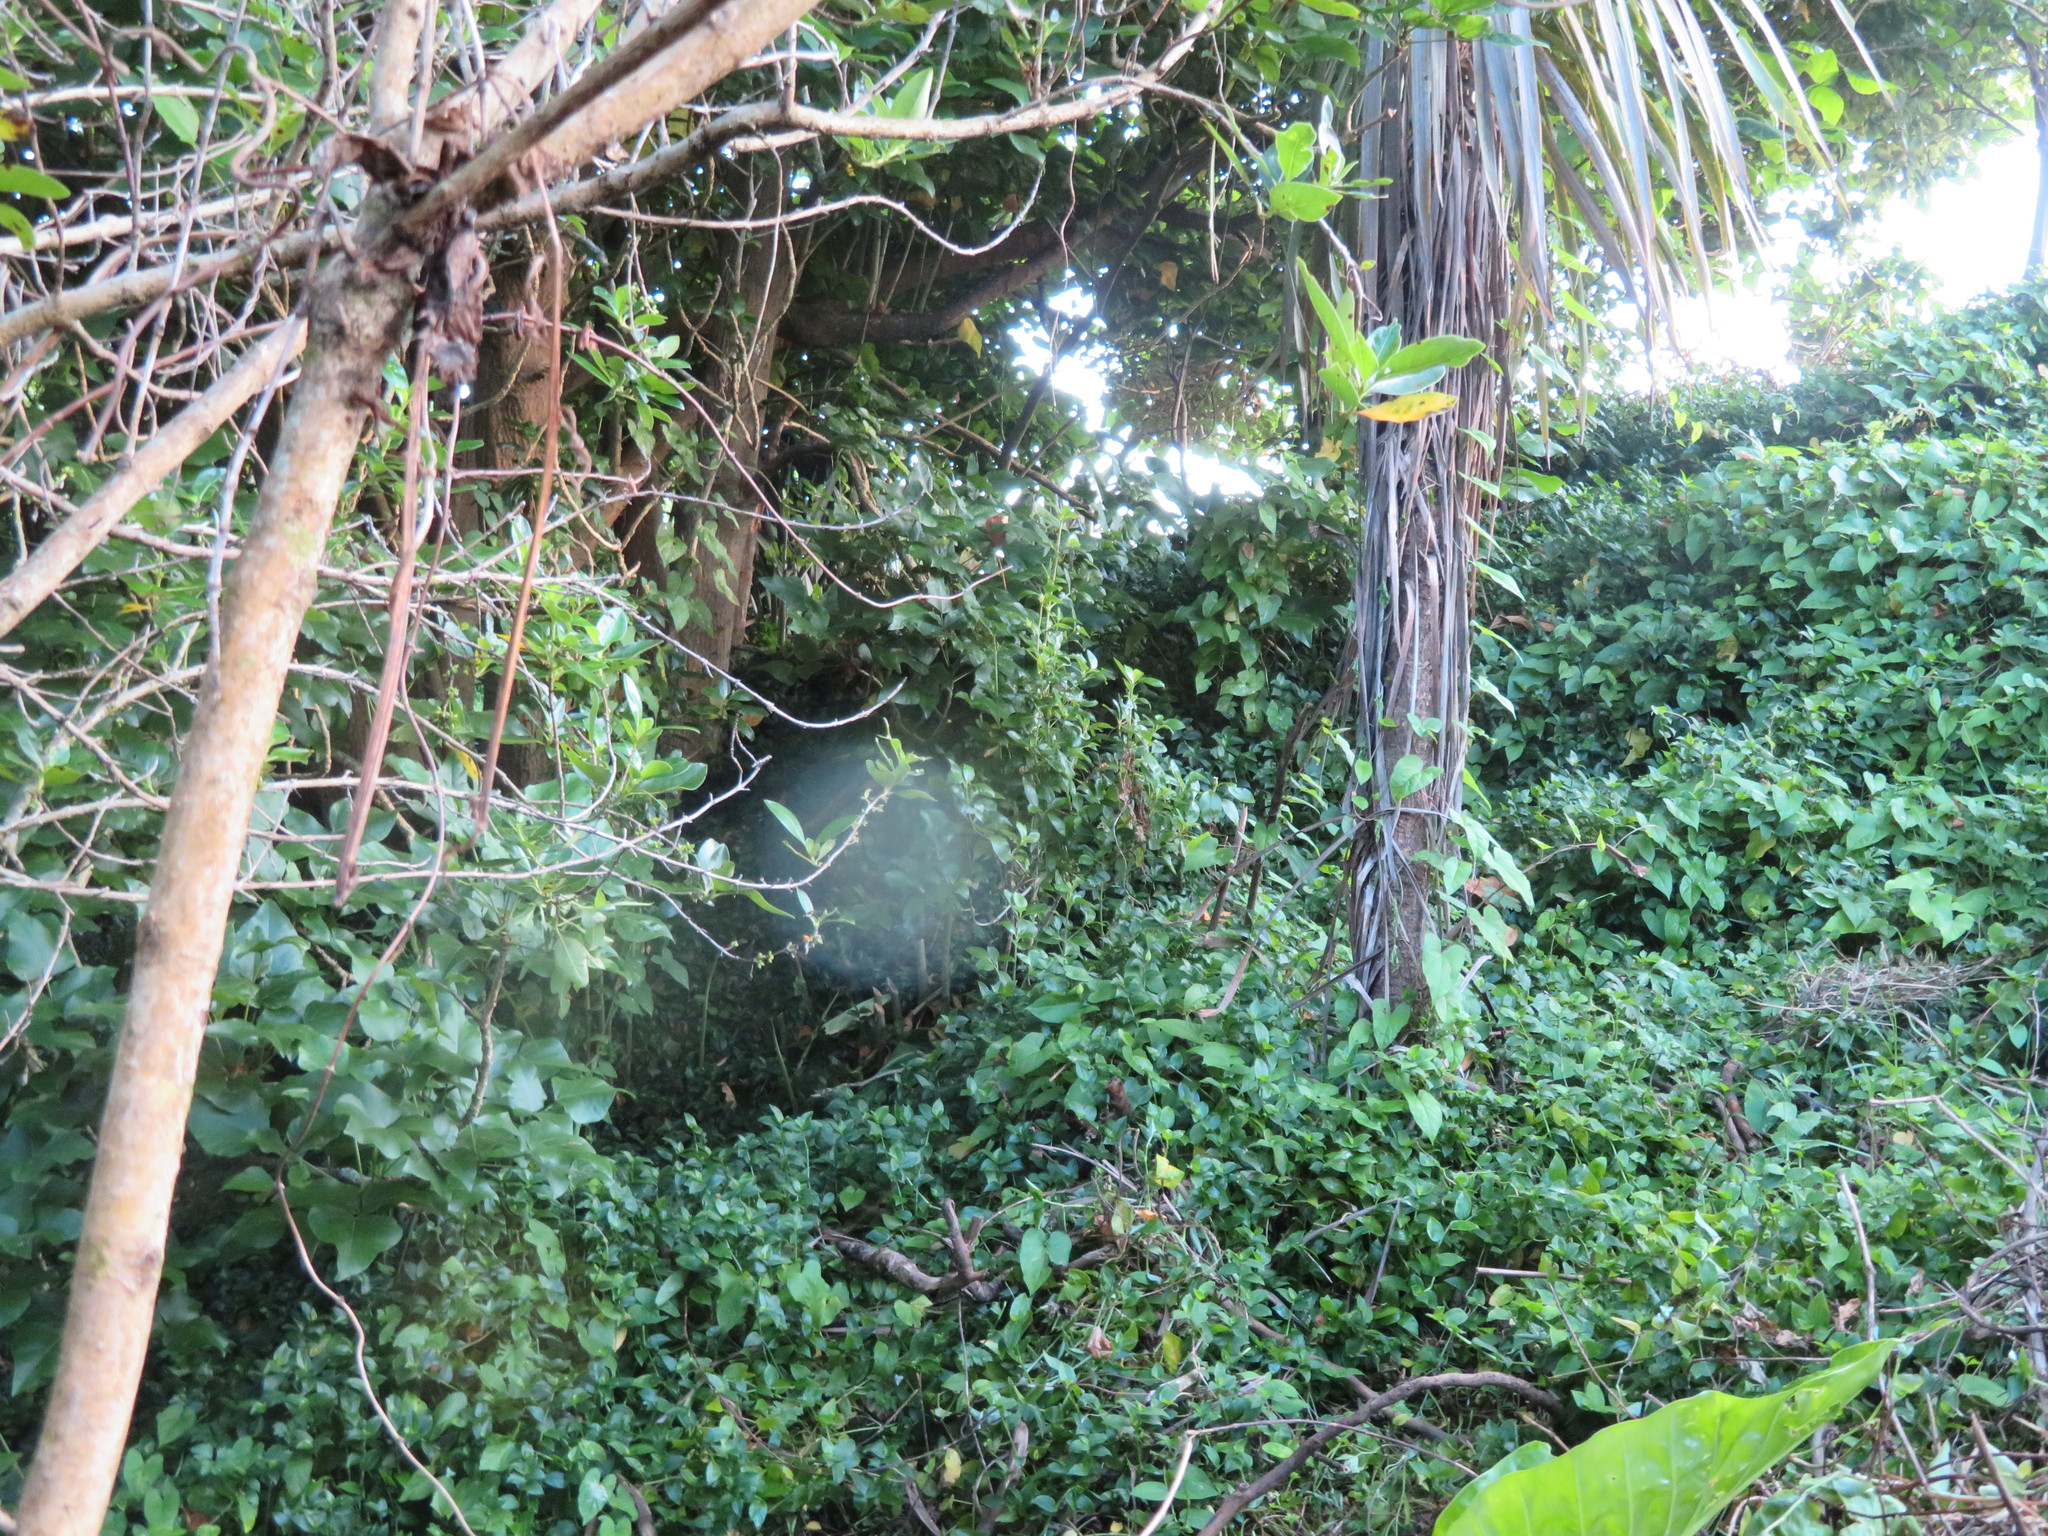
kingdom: Plantae
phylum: Tracheophyta
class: Liliopsida
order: Commelinales
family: Commelinaceae
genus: Tradescantia
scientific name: Tradescantia fluminensis
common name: Wandering-jew
